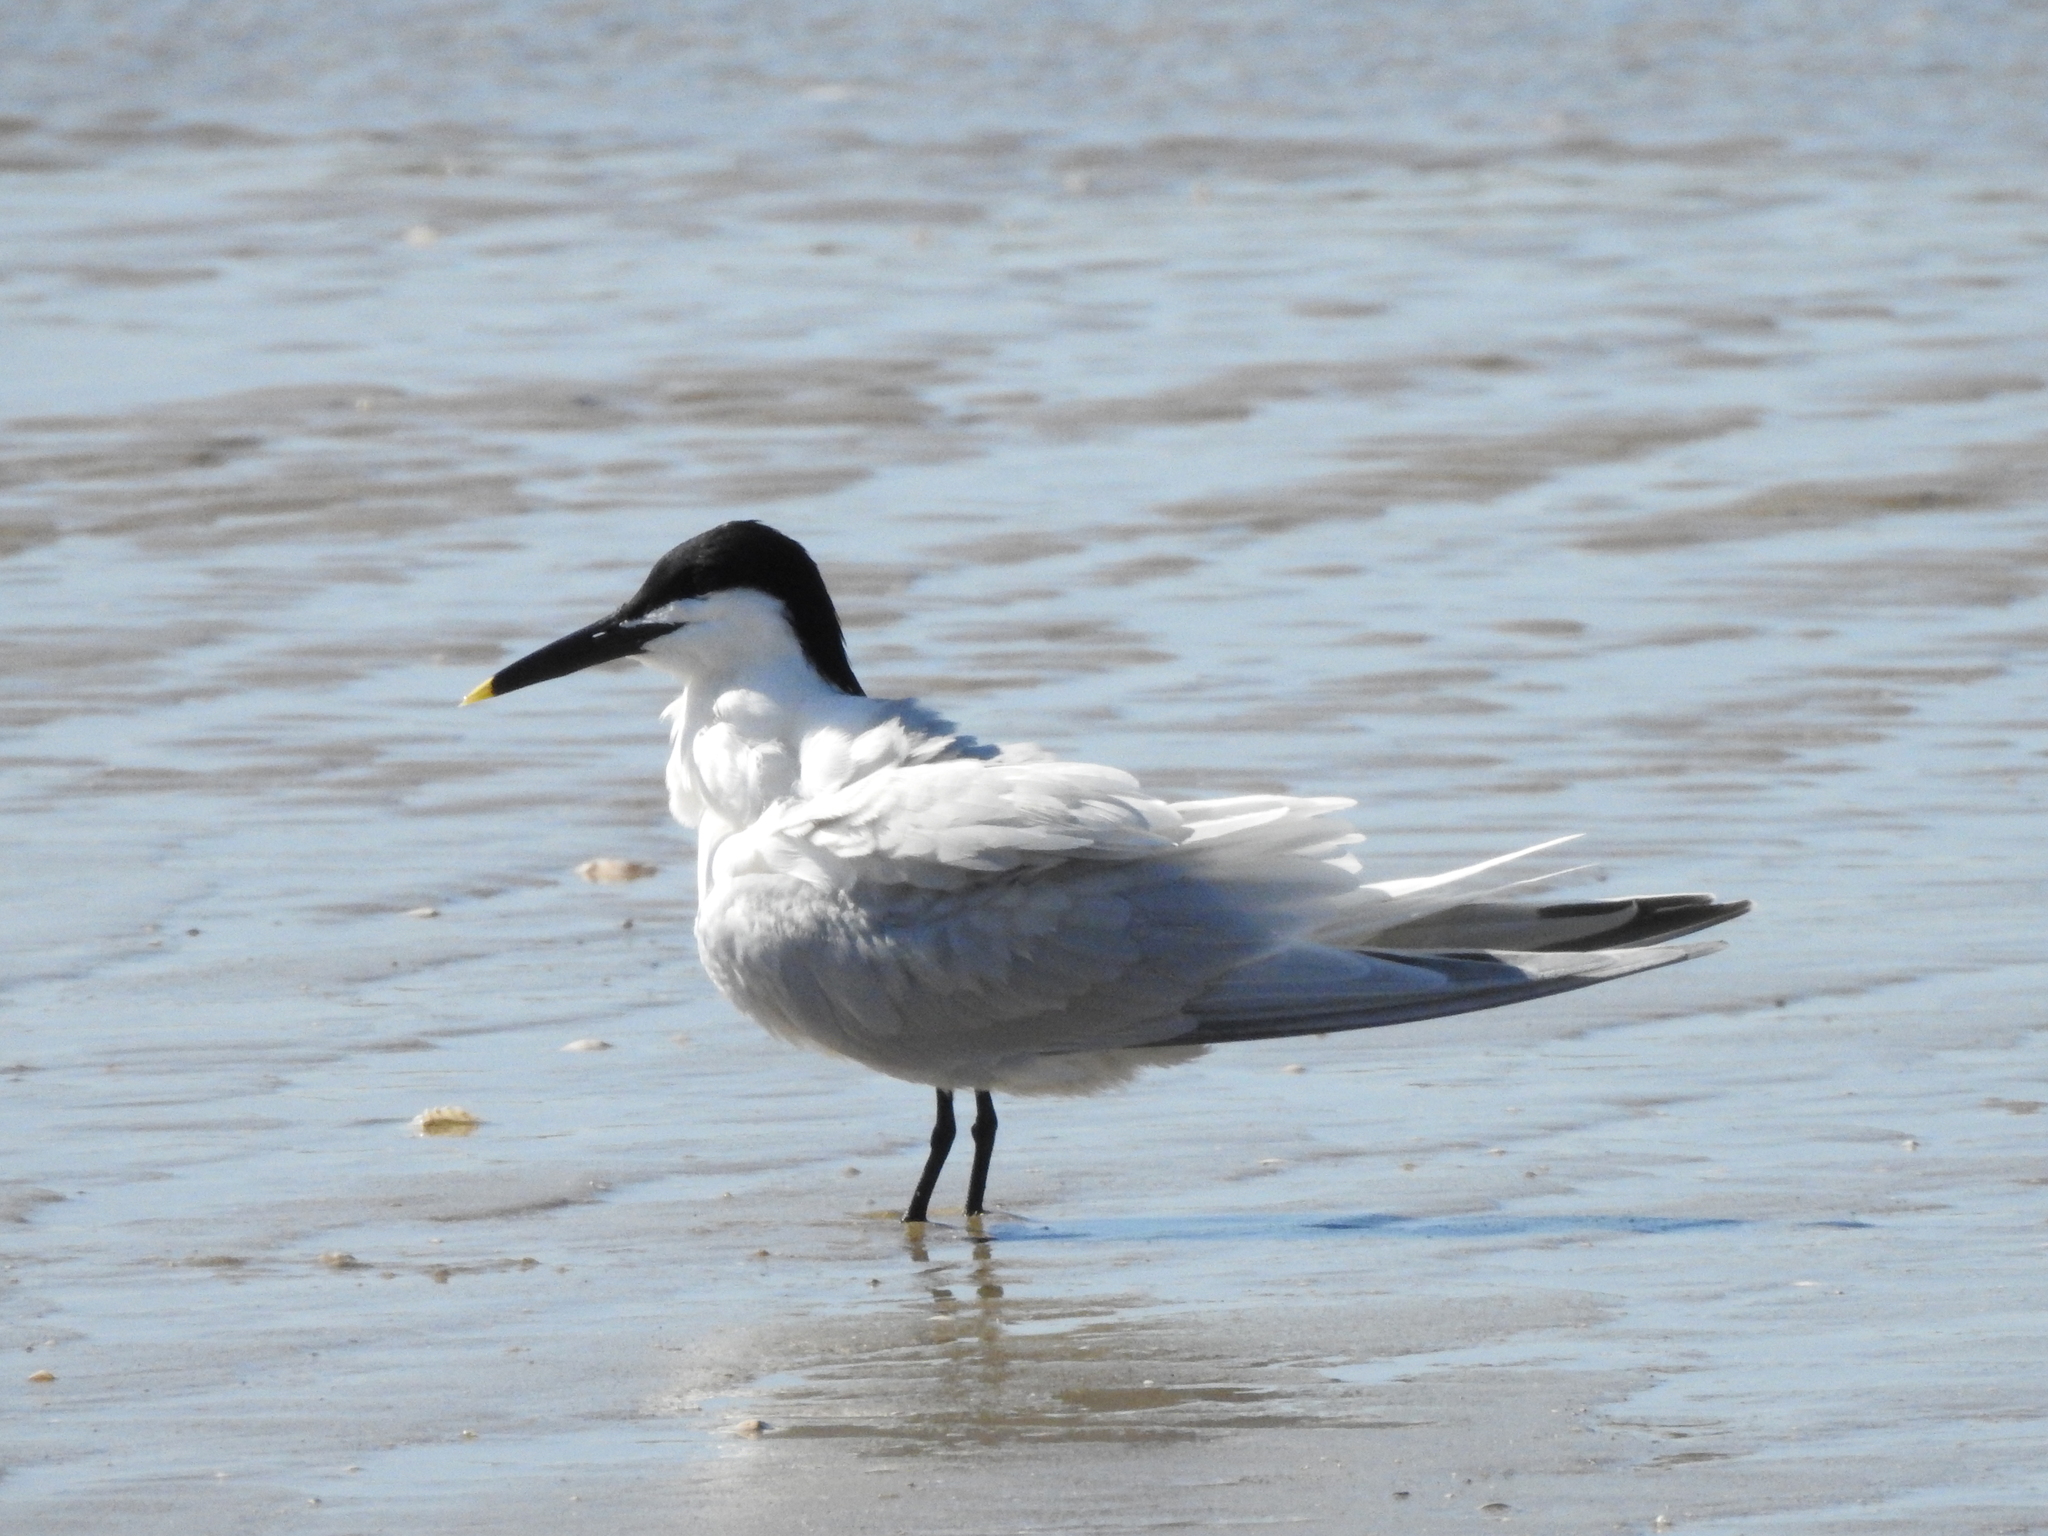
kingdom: Animalia
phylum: Chordata
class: Aves
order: Charadriiformes
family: Laridae
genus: Thalasseus
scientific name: Thalasseus sandvicensis
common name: Sandwich tern
